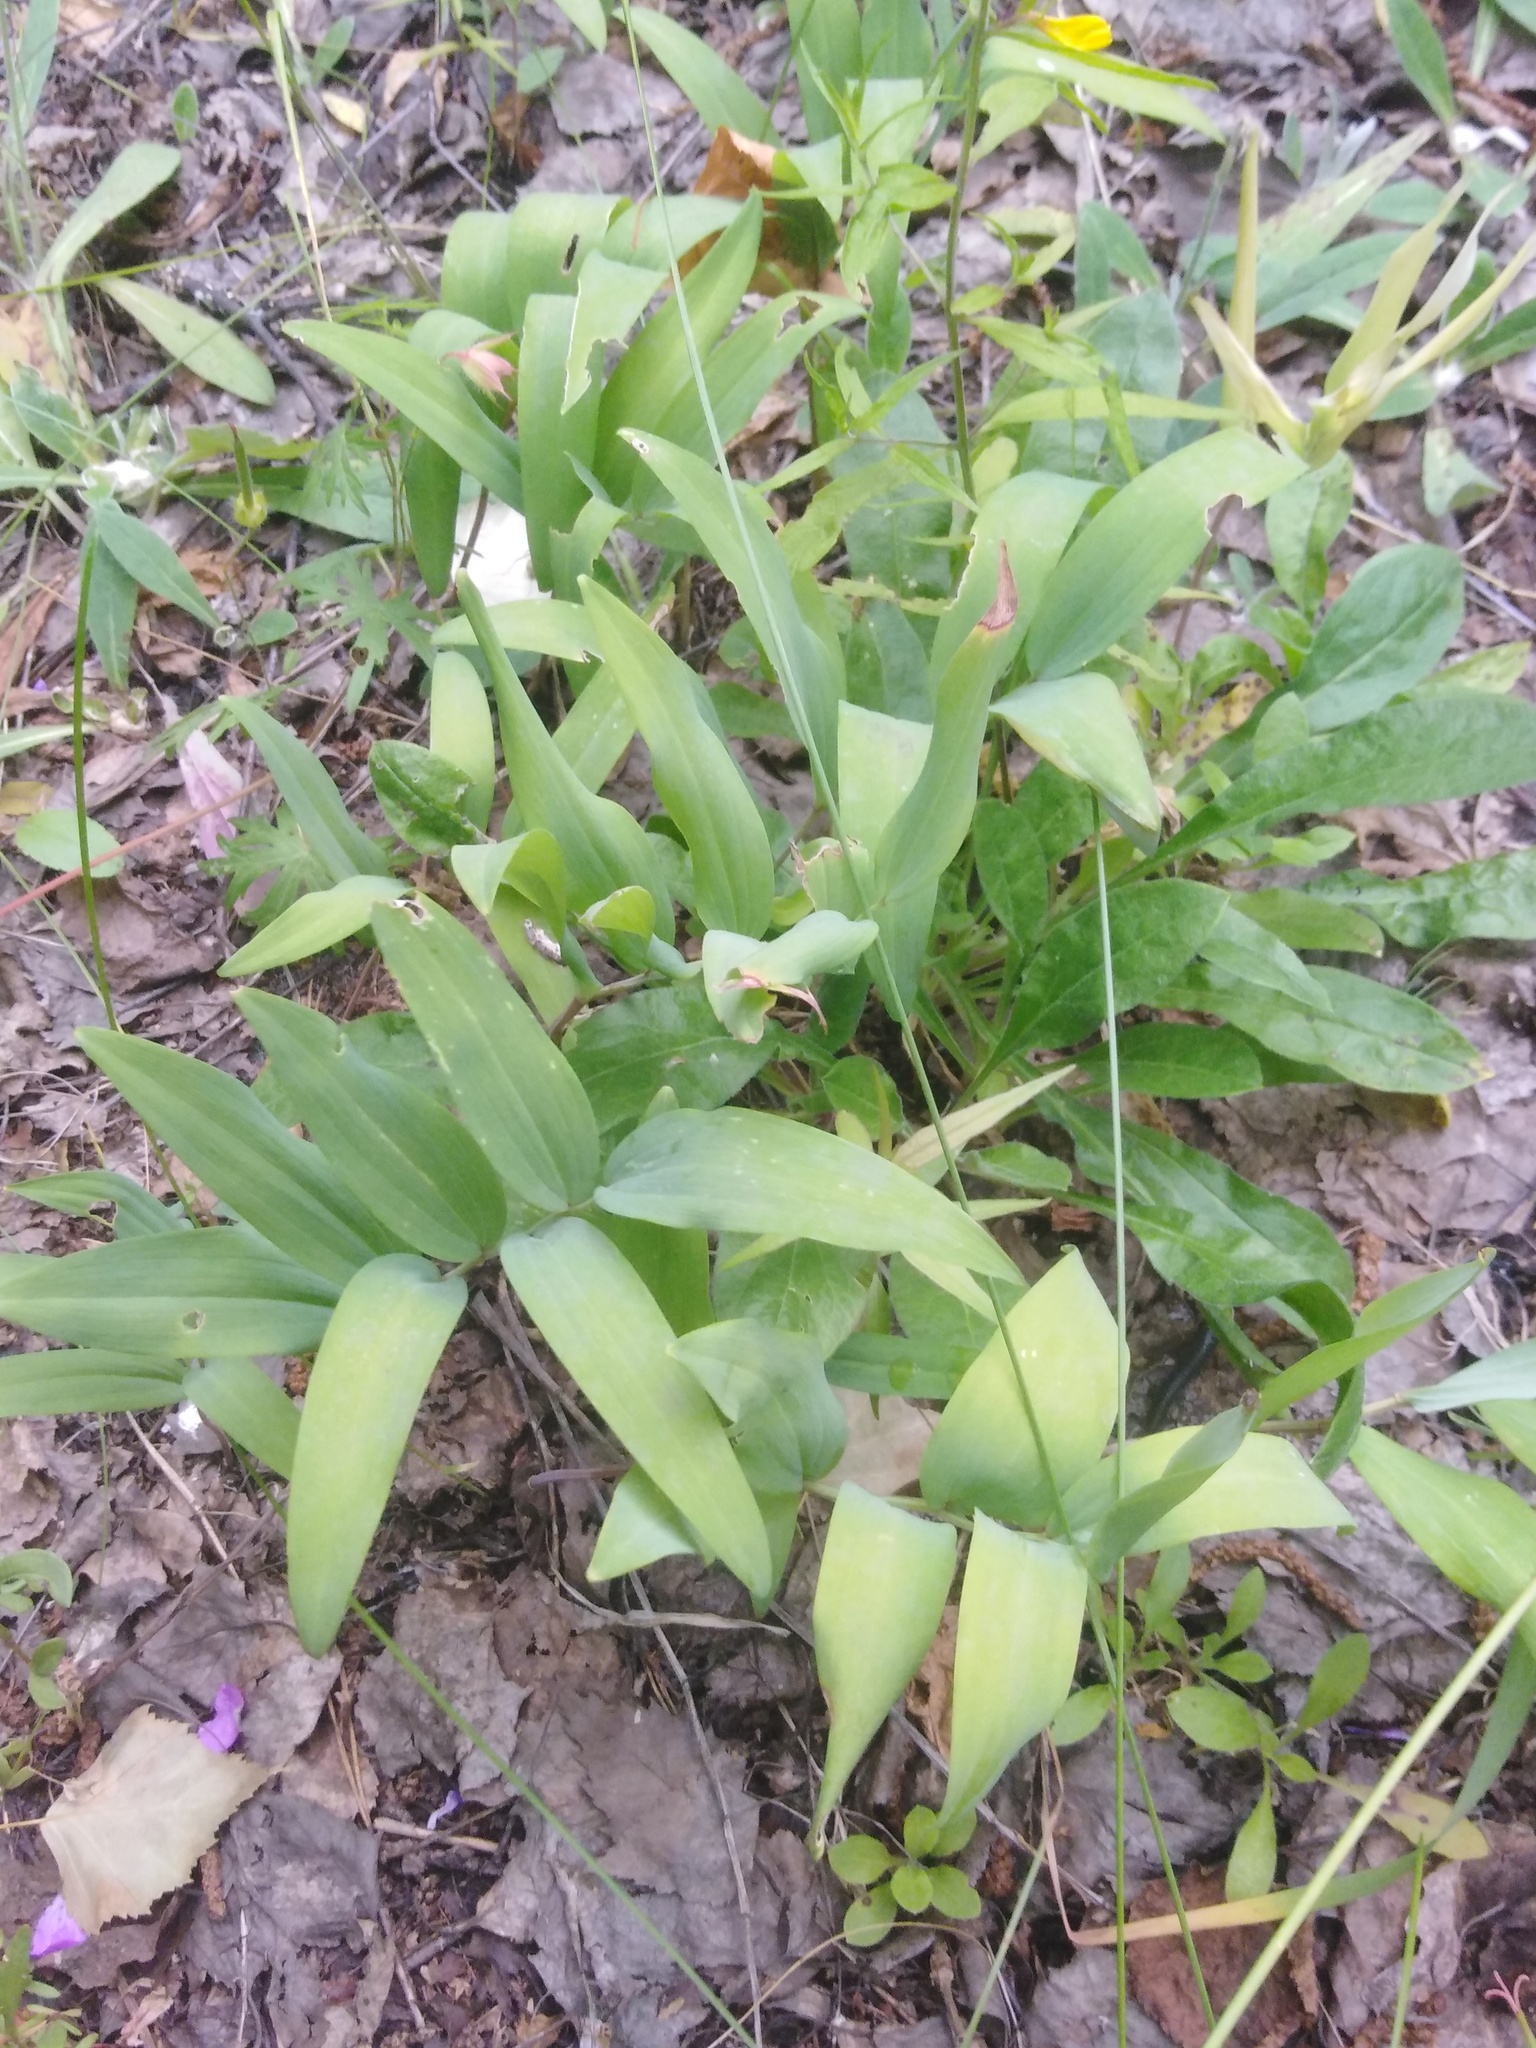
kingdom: Plantae
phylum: Tracheophyta
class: Liliopsida
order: Asparagales
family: Asparagaceae
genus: Polygonatum
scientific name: Polygonatum odoratum
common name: Angular solomon's-seal
